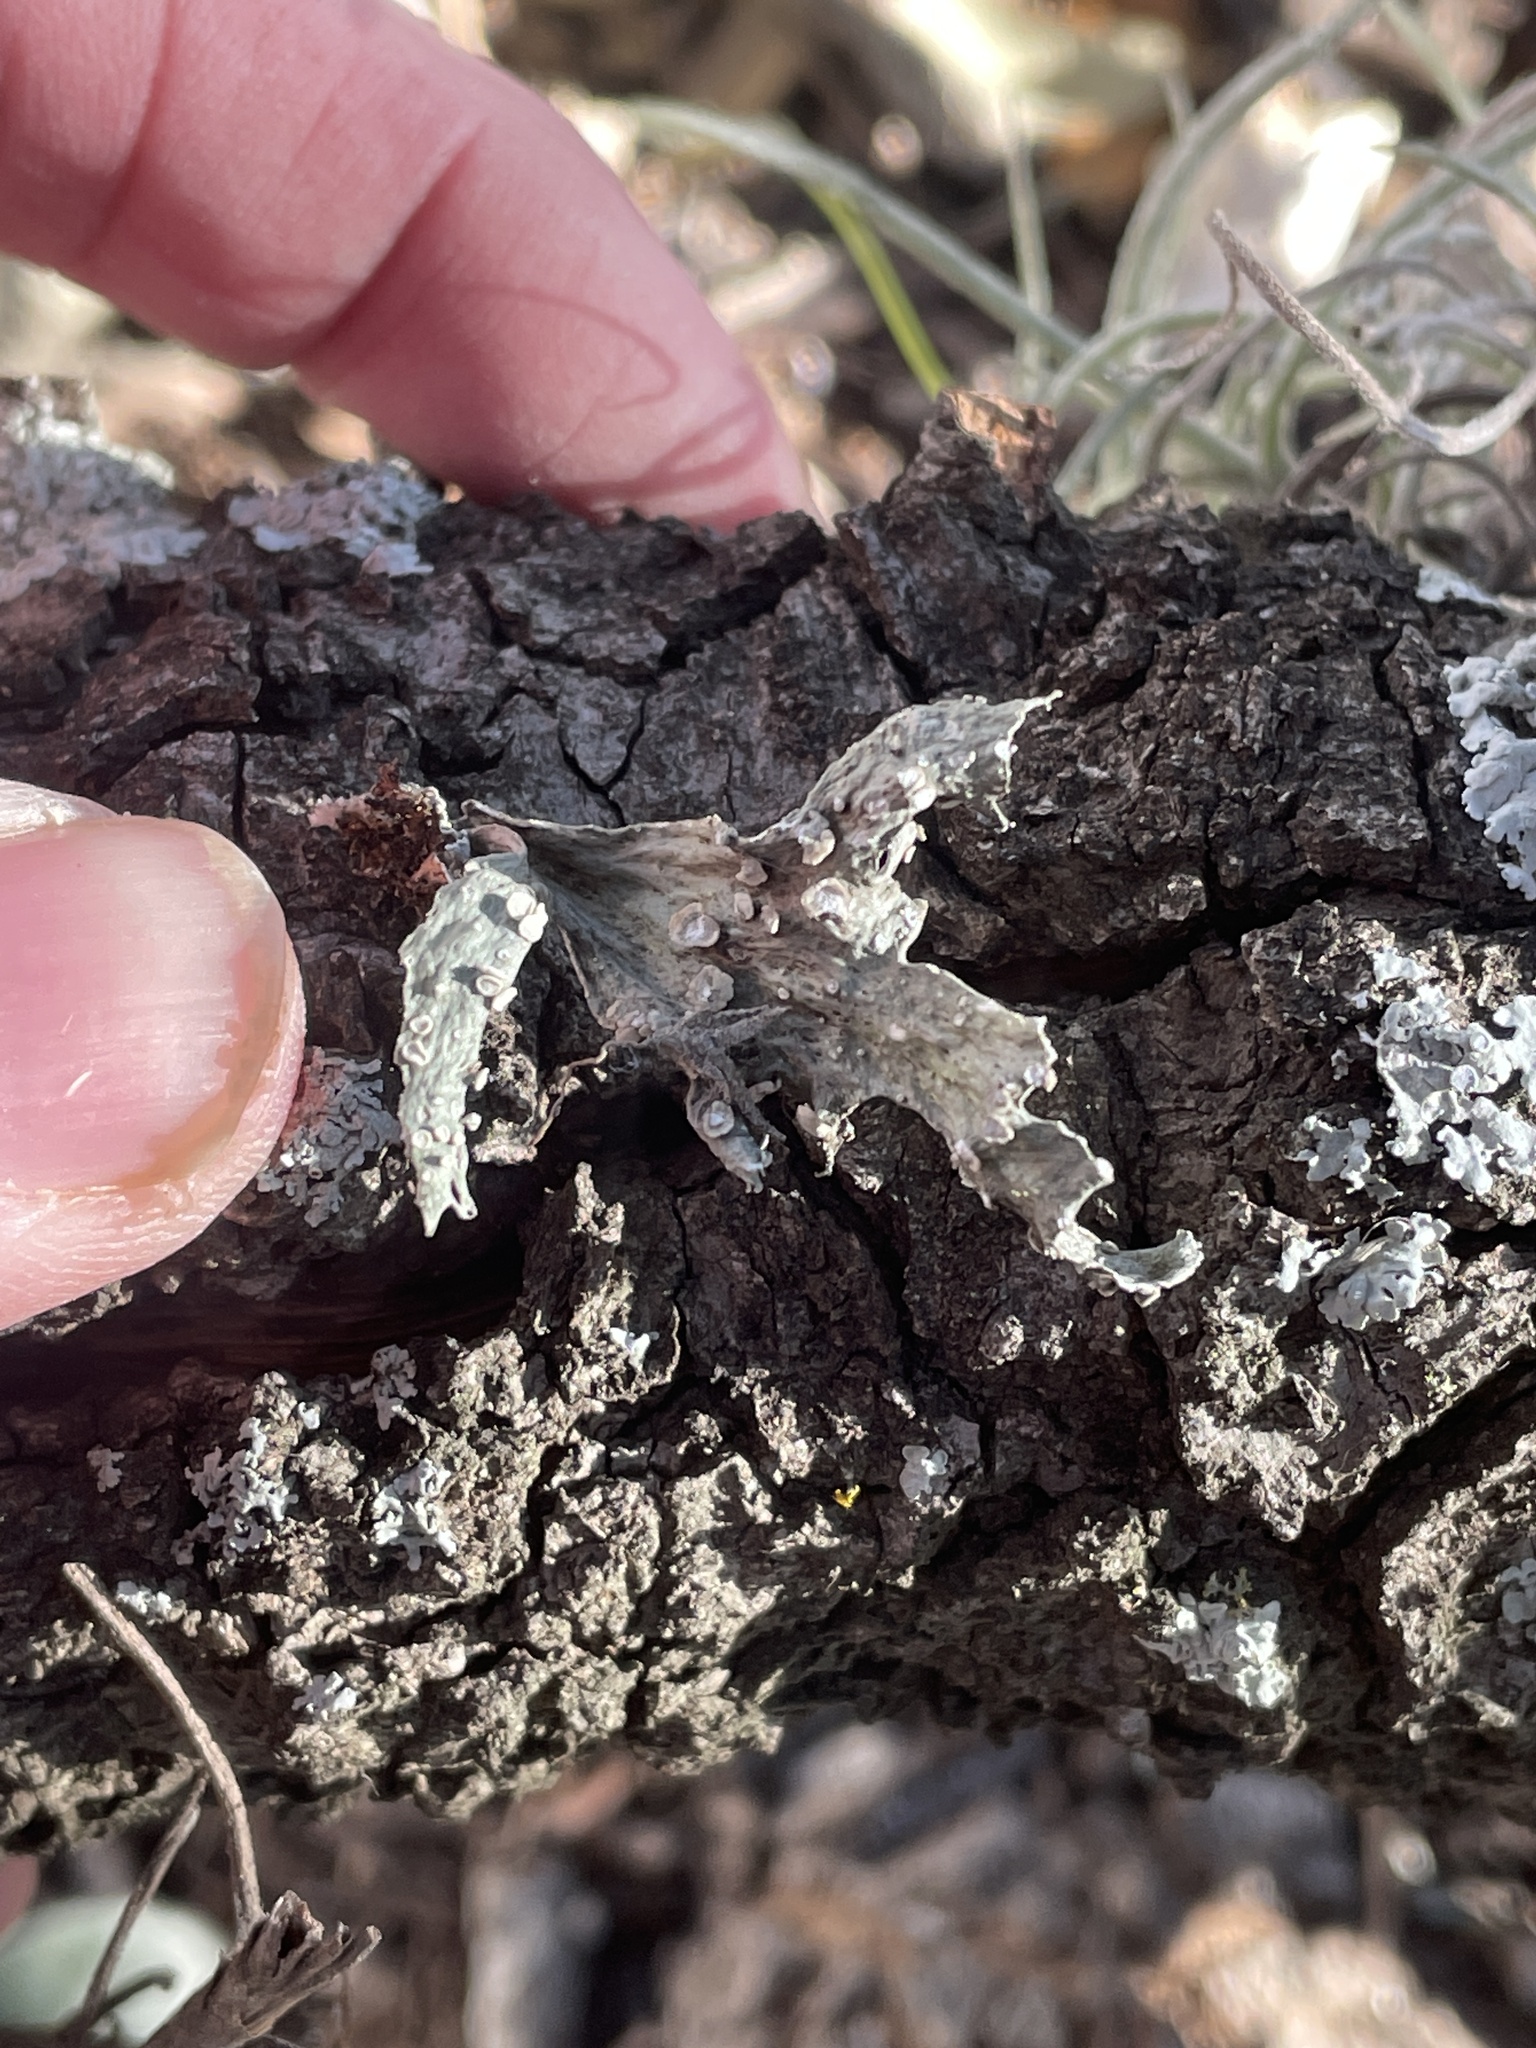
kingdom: Fungi
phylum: Ascomycota
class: Lecanoromycetes
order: Lecanorales
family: Ramalinaceae
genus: Ramalina
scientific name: Ramalina celastri
